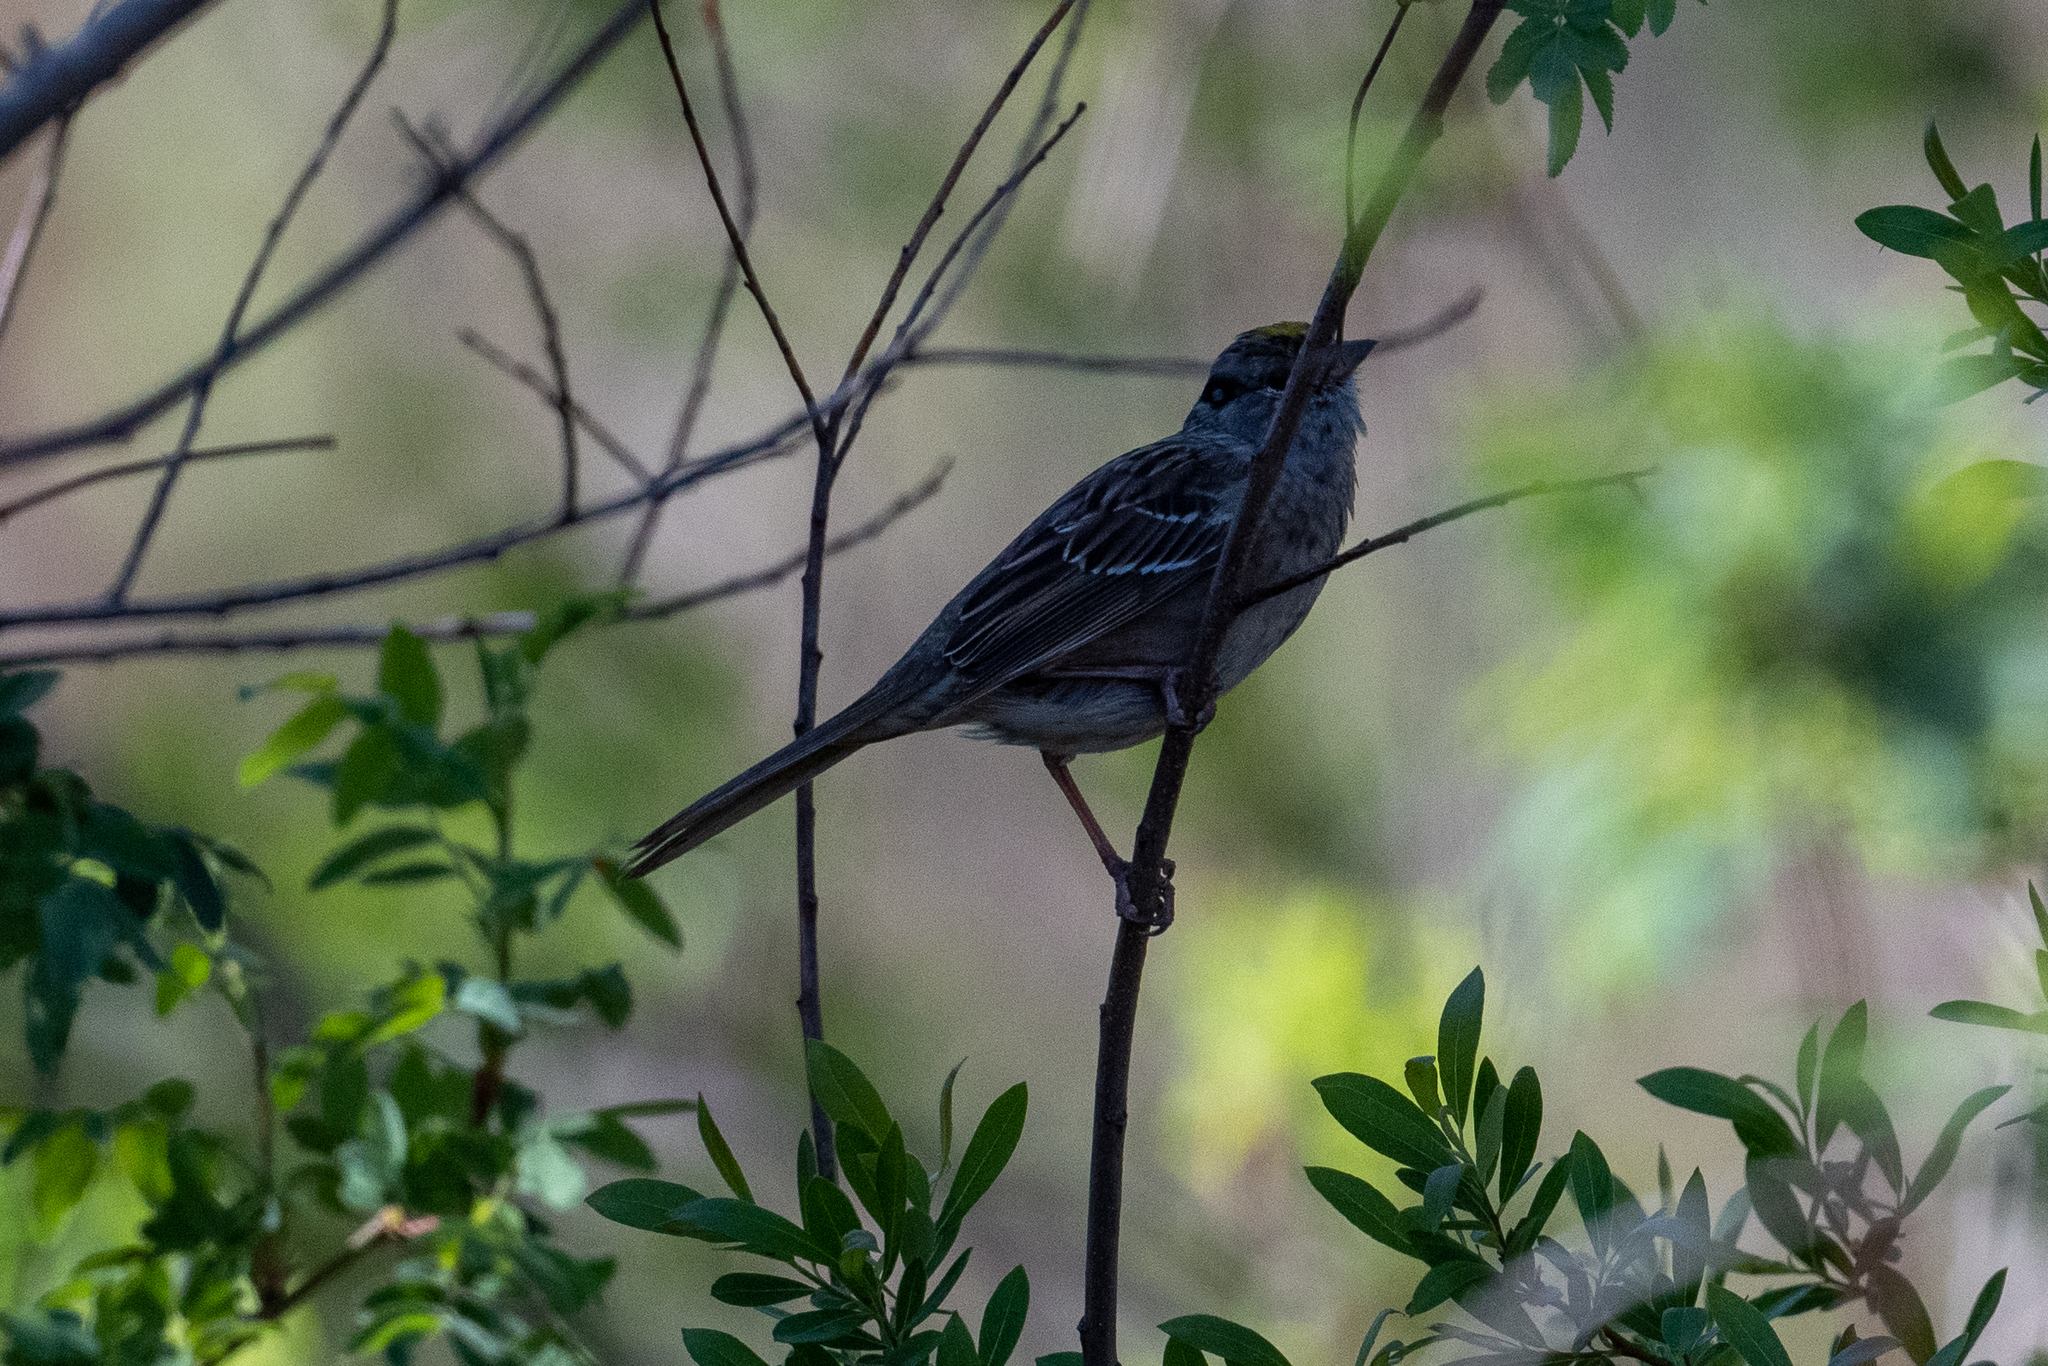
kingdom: Animalia
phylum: Chordata
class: Aves
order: Passeriformes
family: Passerellidae
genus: Zonotrichia
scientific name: Zonotrichia atricapilla
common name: Golden-crowned sparrow
